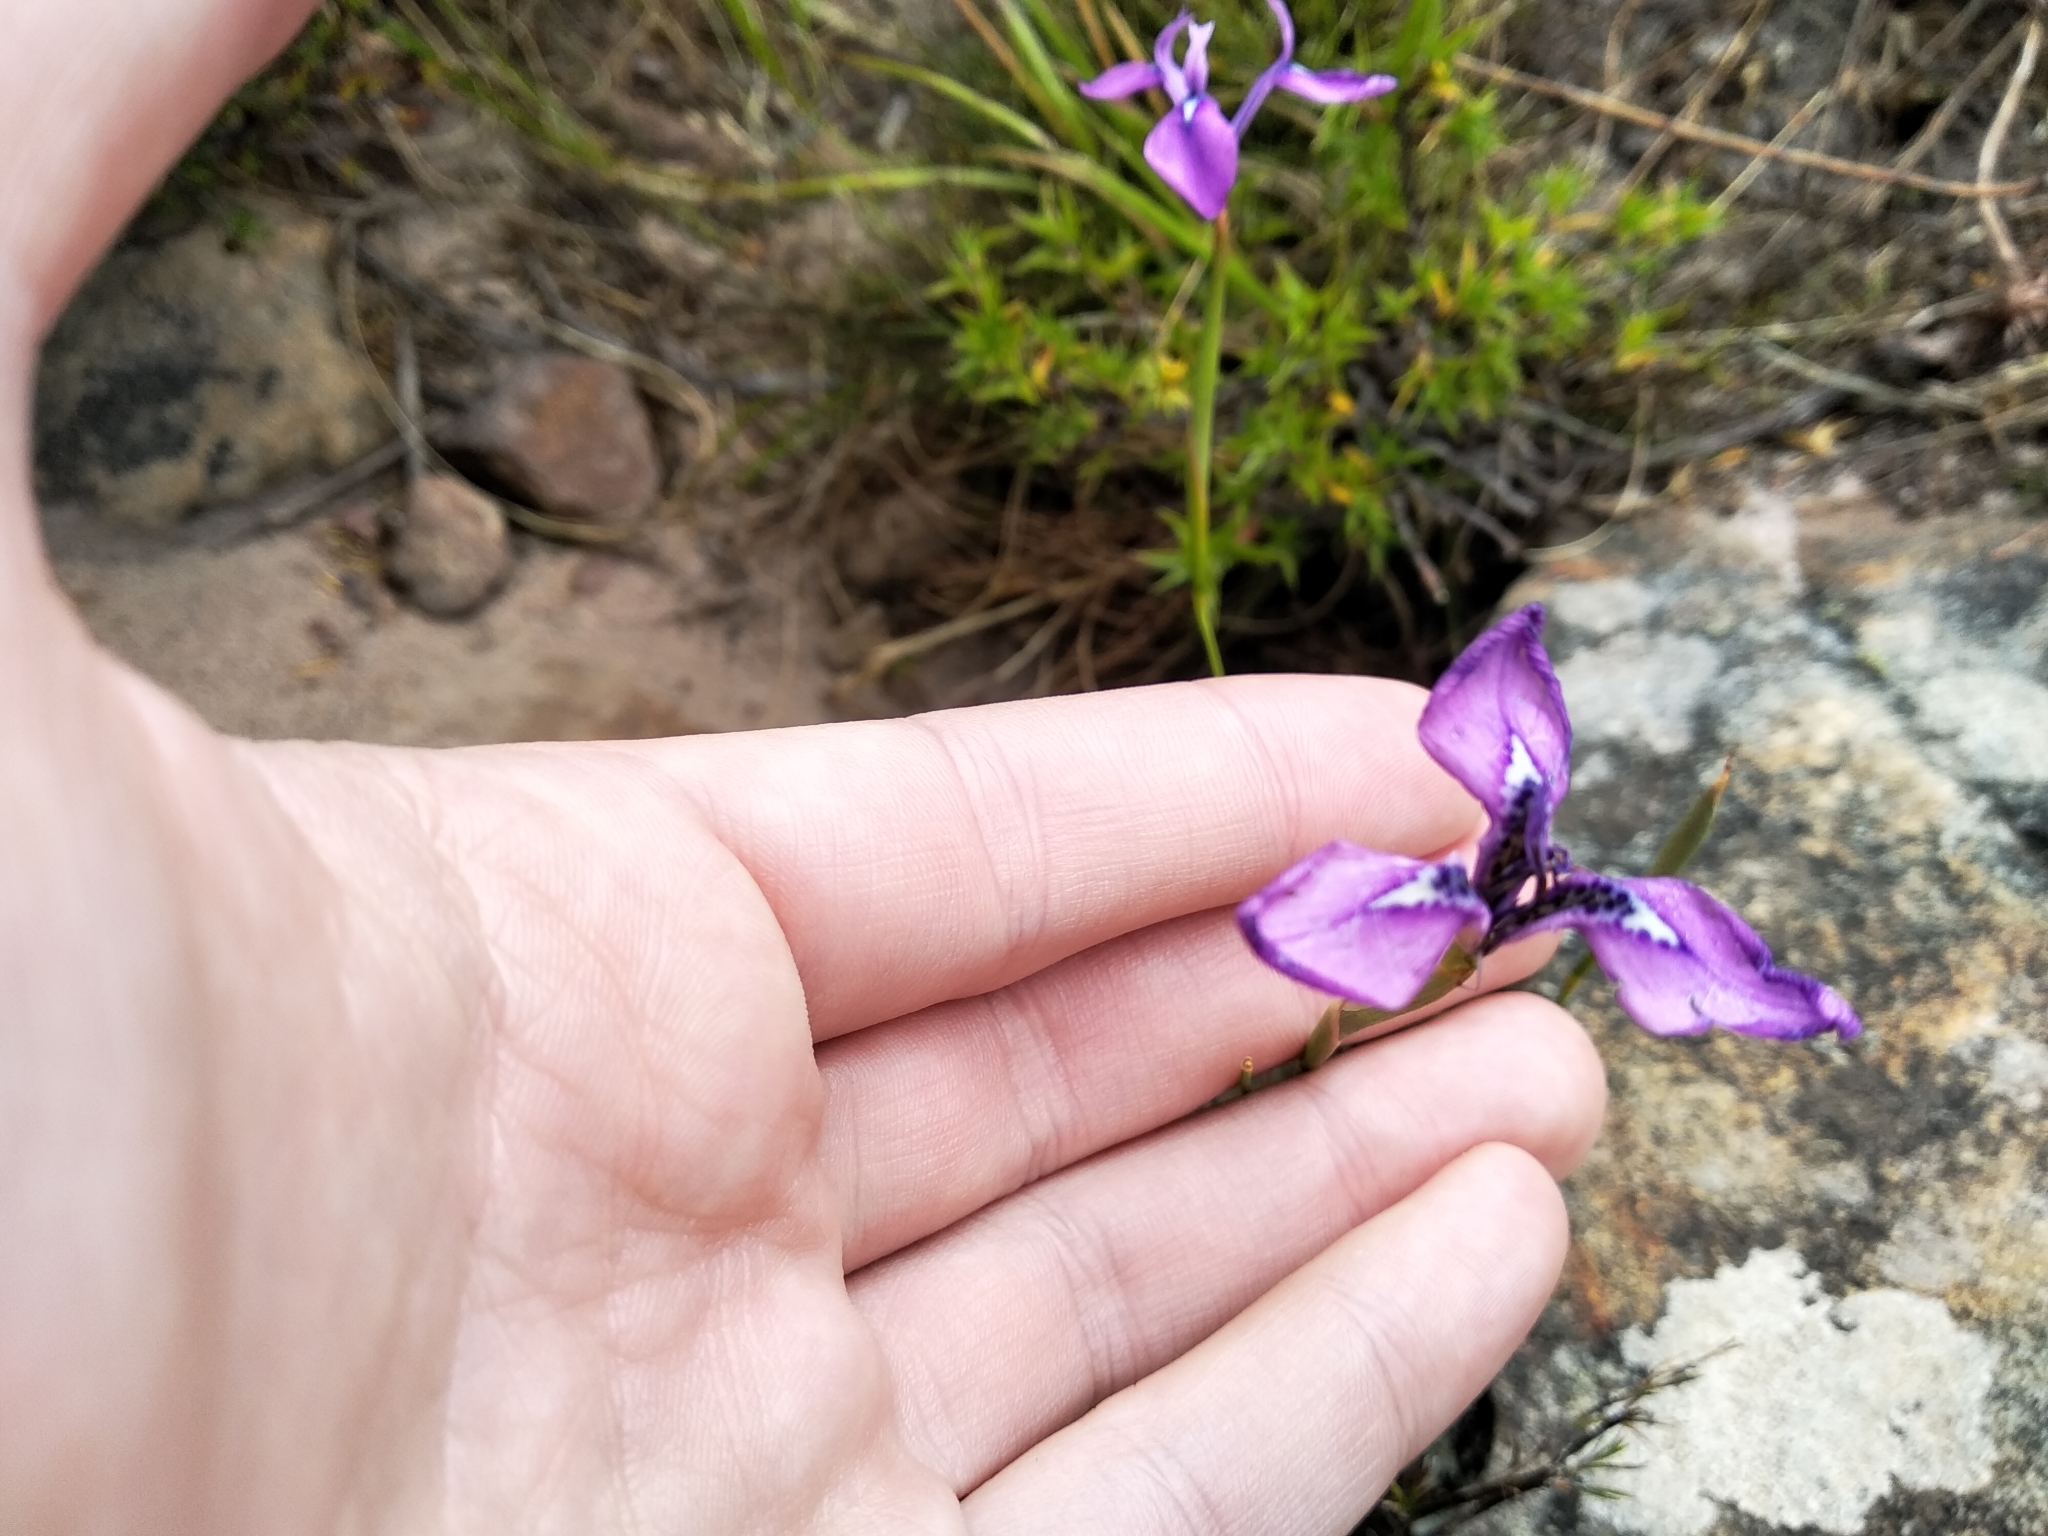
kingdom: Plantae
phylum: Tracheophyta
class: Liliopsida
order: Asparagales
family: Iridaceae
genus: Moraea
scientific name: Moraea tripetala
